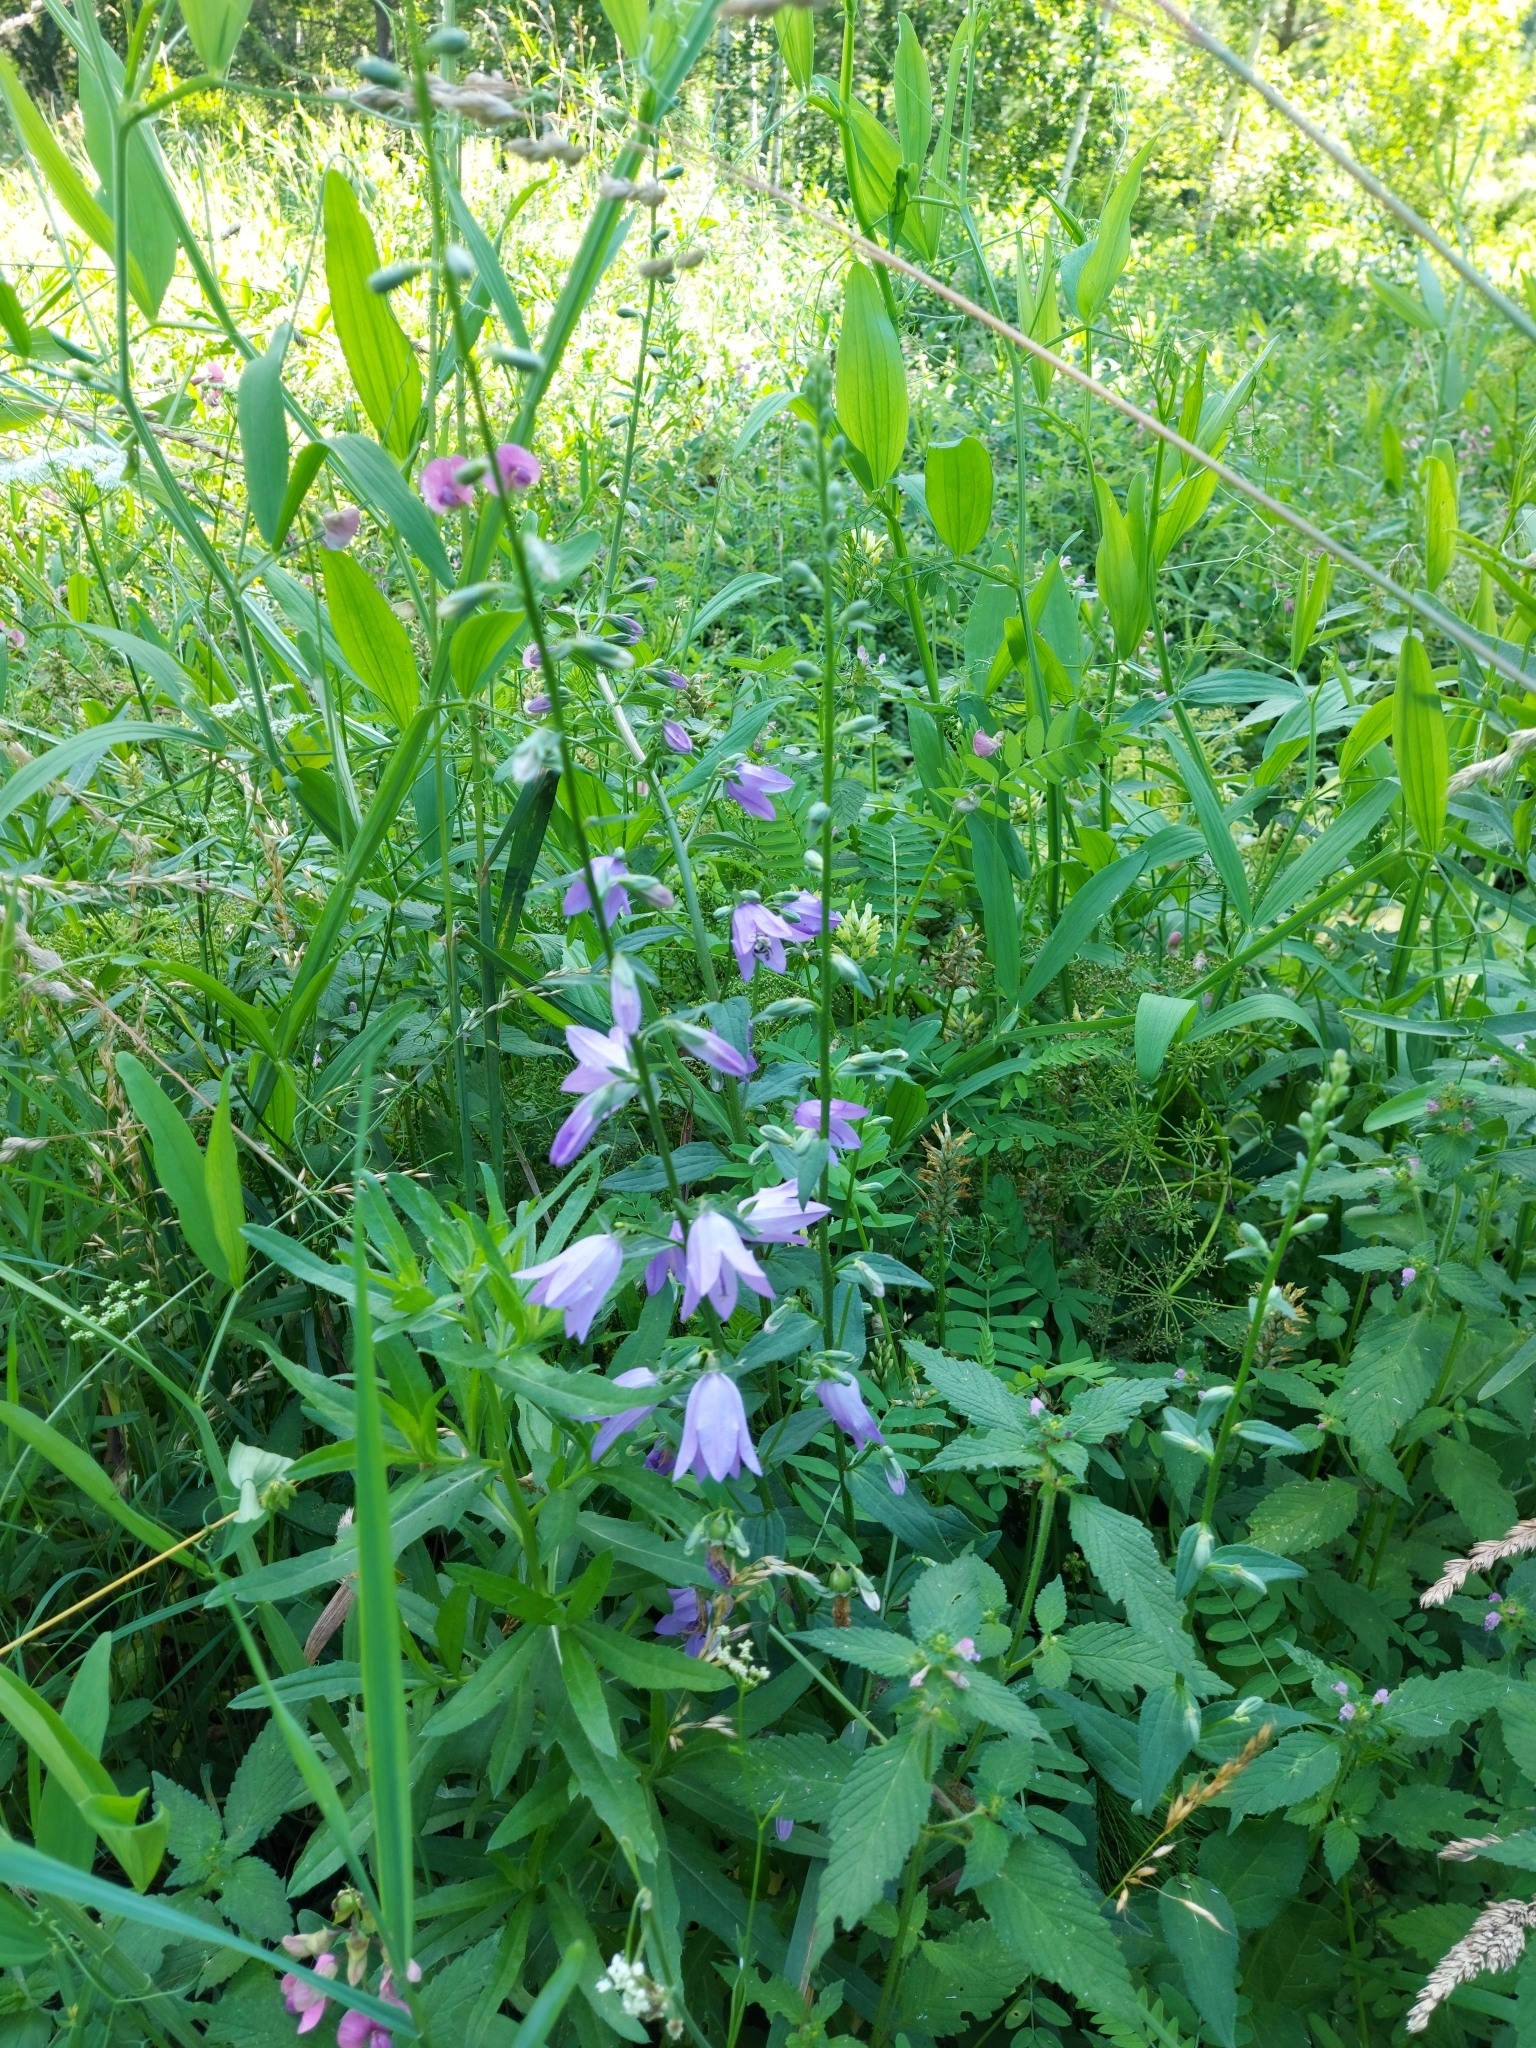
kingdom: Plantae
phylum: Tracheophyta
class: Magnoliopsida
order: Asterales
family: Campanulaceae
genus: Campanula
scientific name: Campanula rapunculoides
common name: Creeping bellflower
